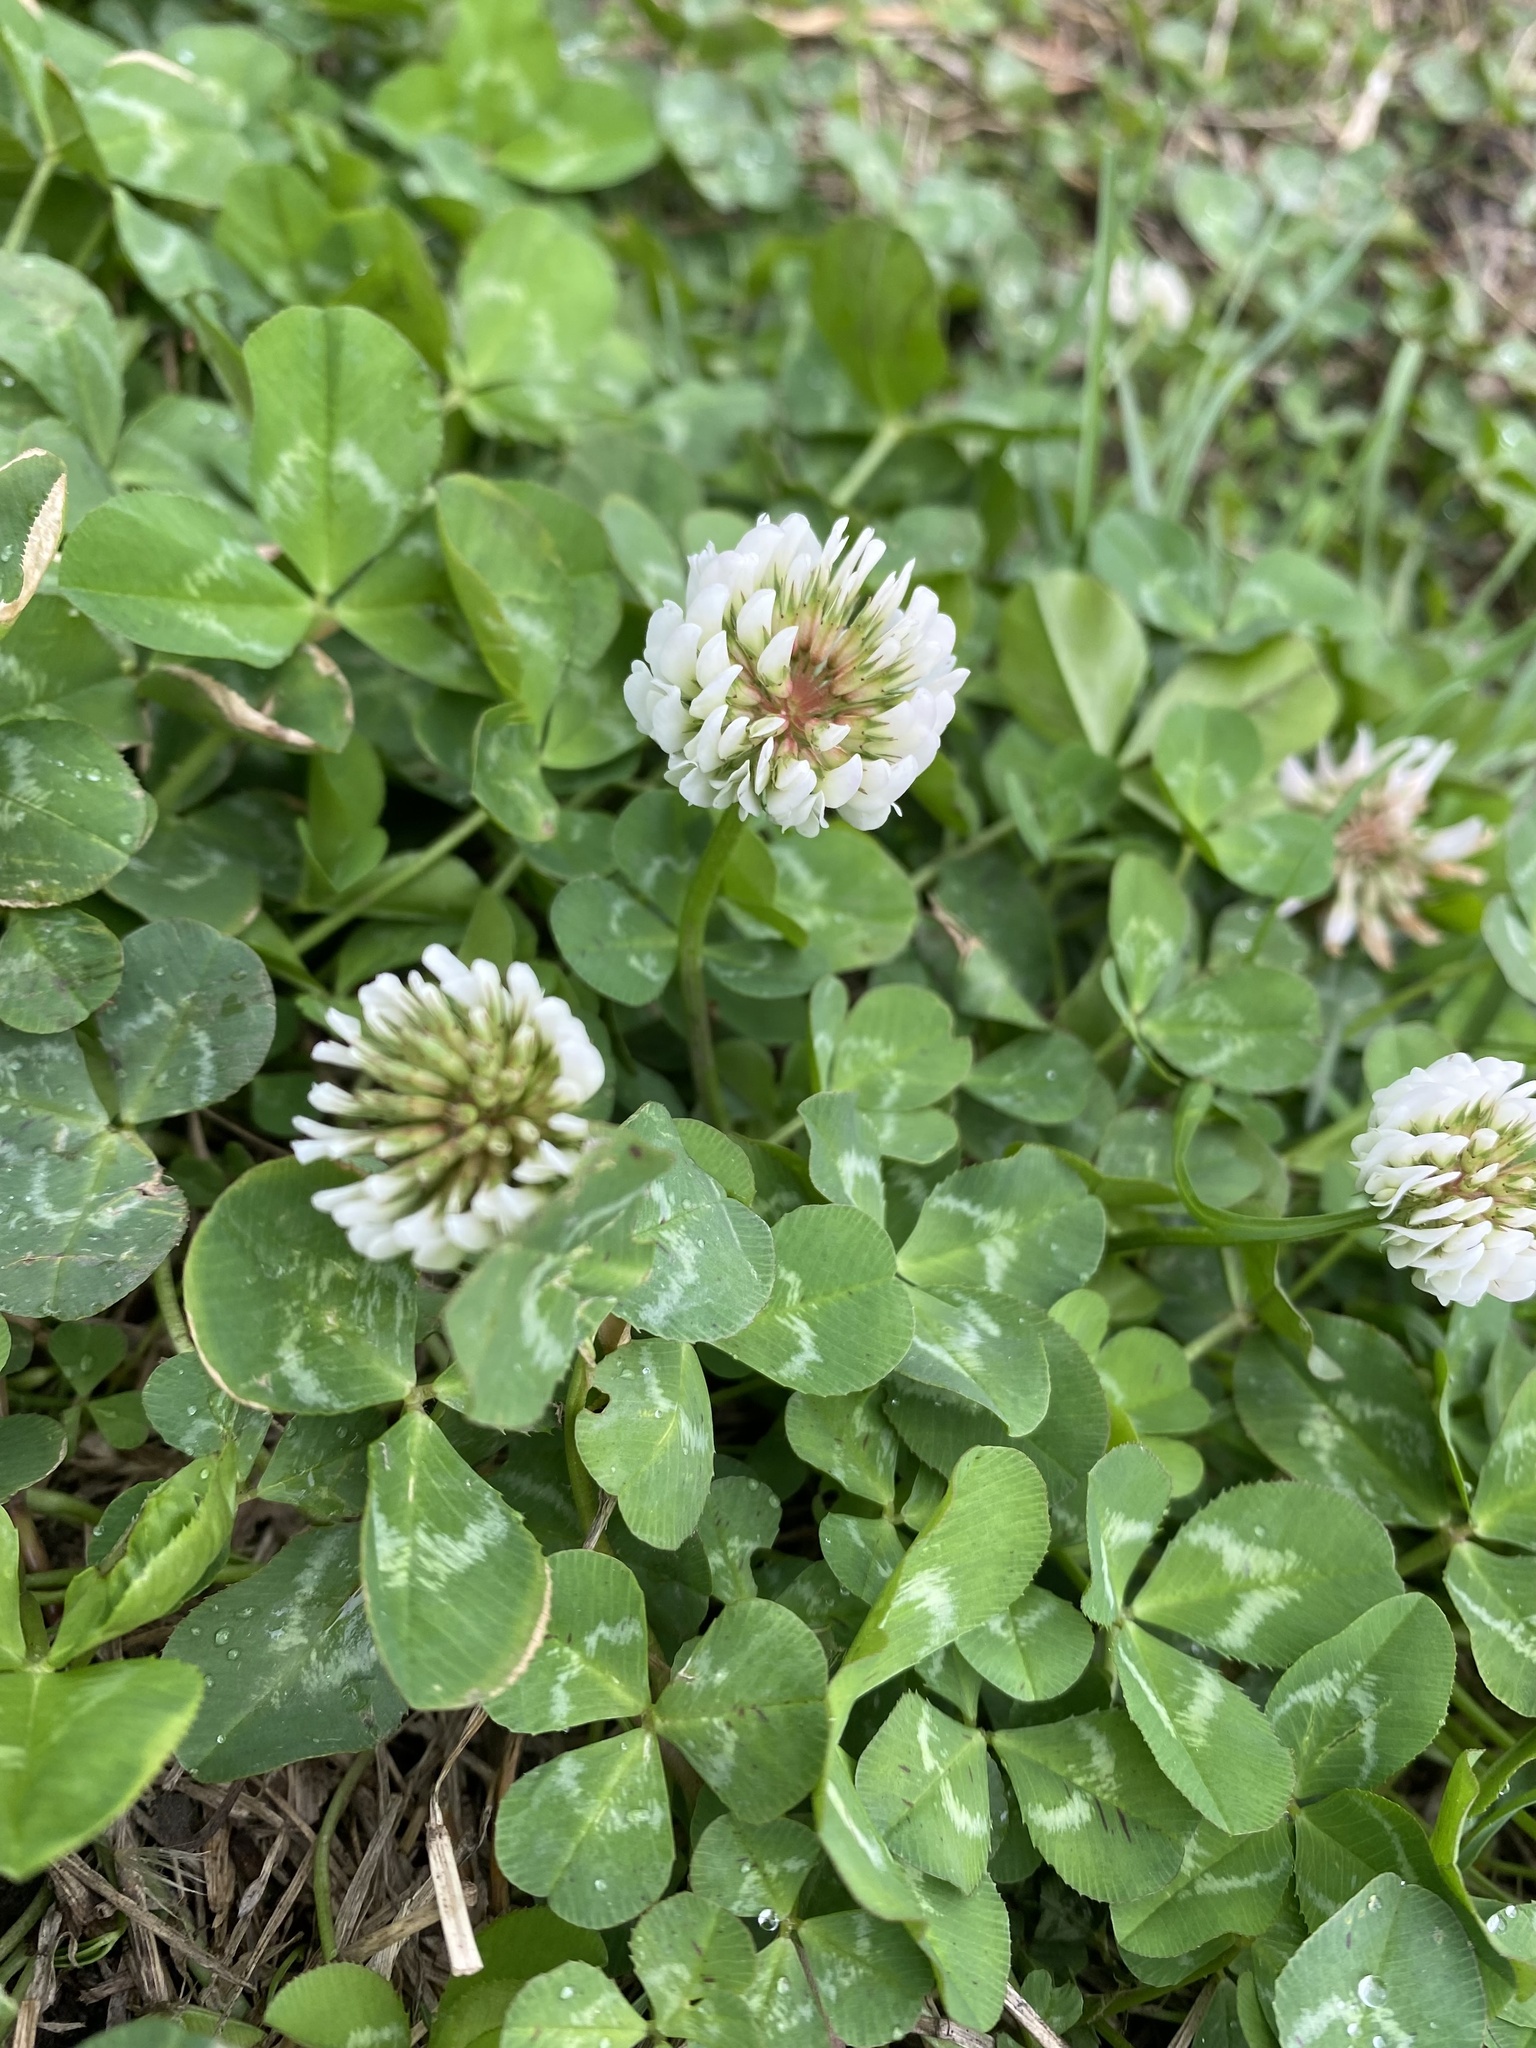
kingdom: Plantae
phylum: Tracheophyta
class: Magnoliopsida
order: Fabales
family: Fabaceae
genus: Trifolium
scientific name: Trifolium repens
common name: White clover
